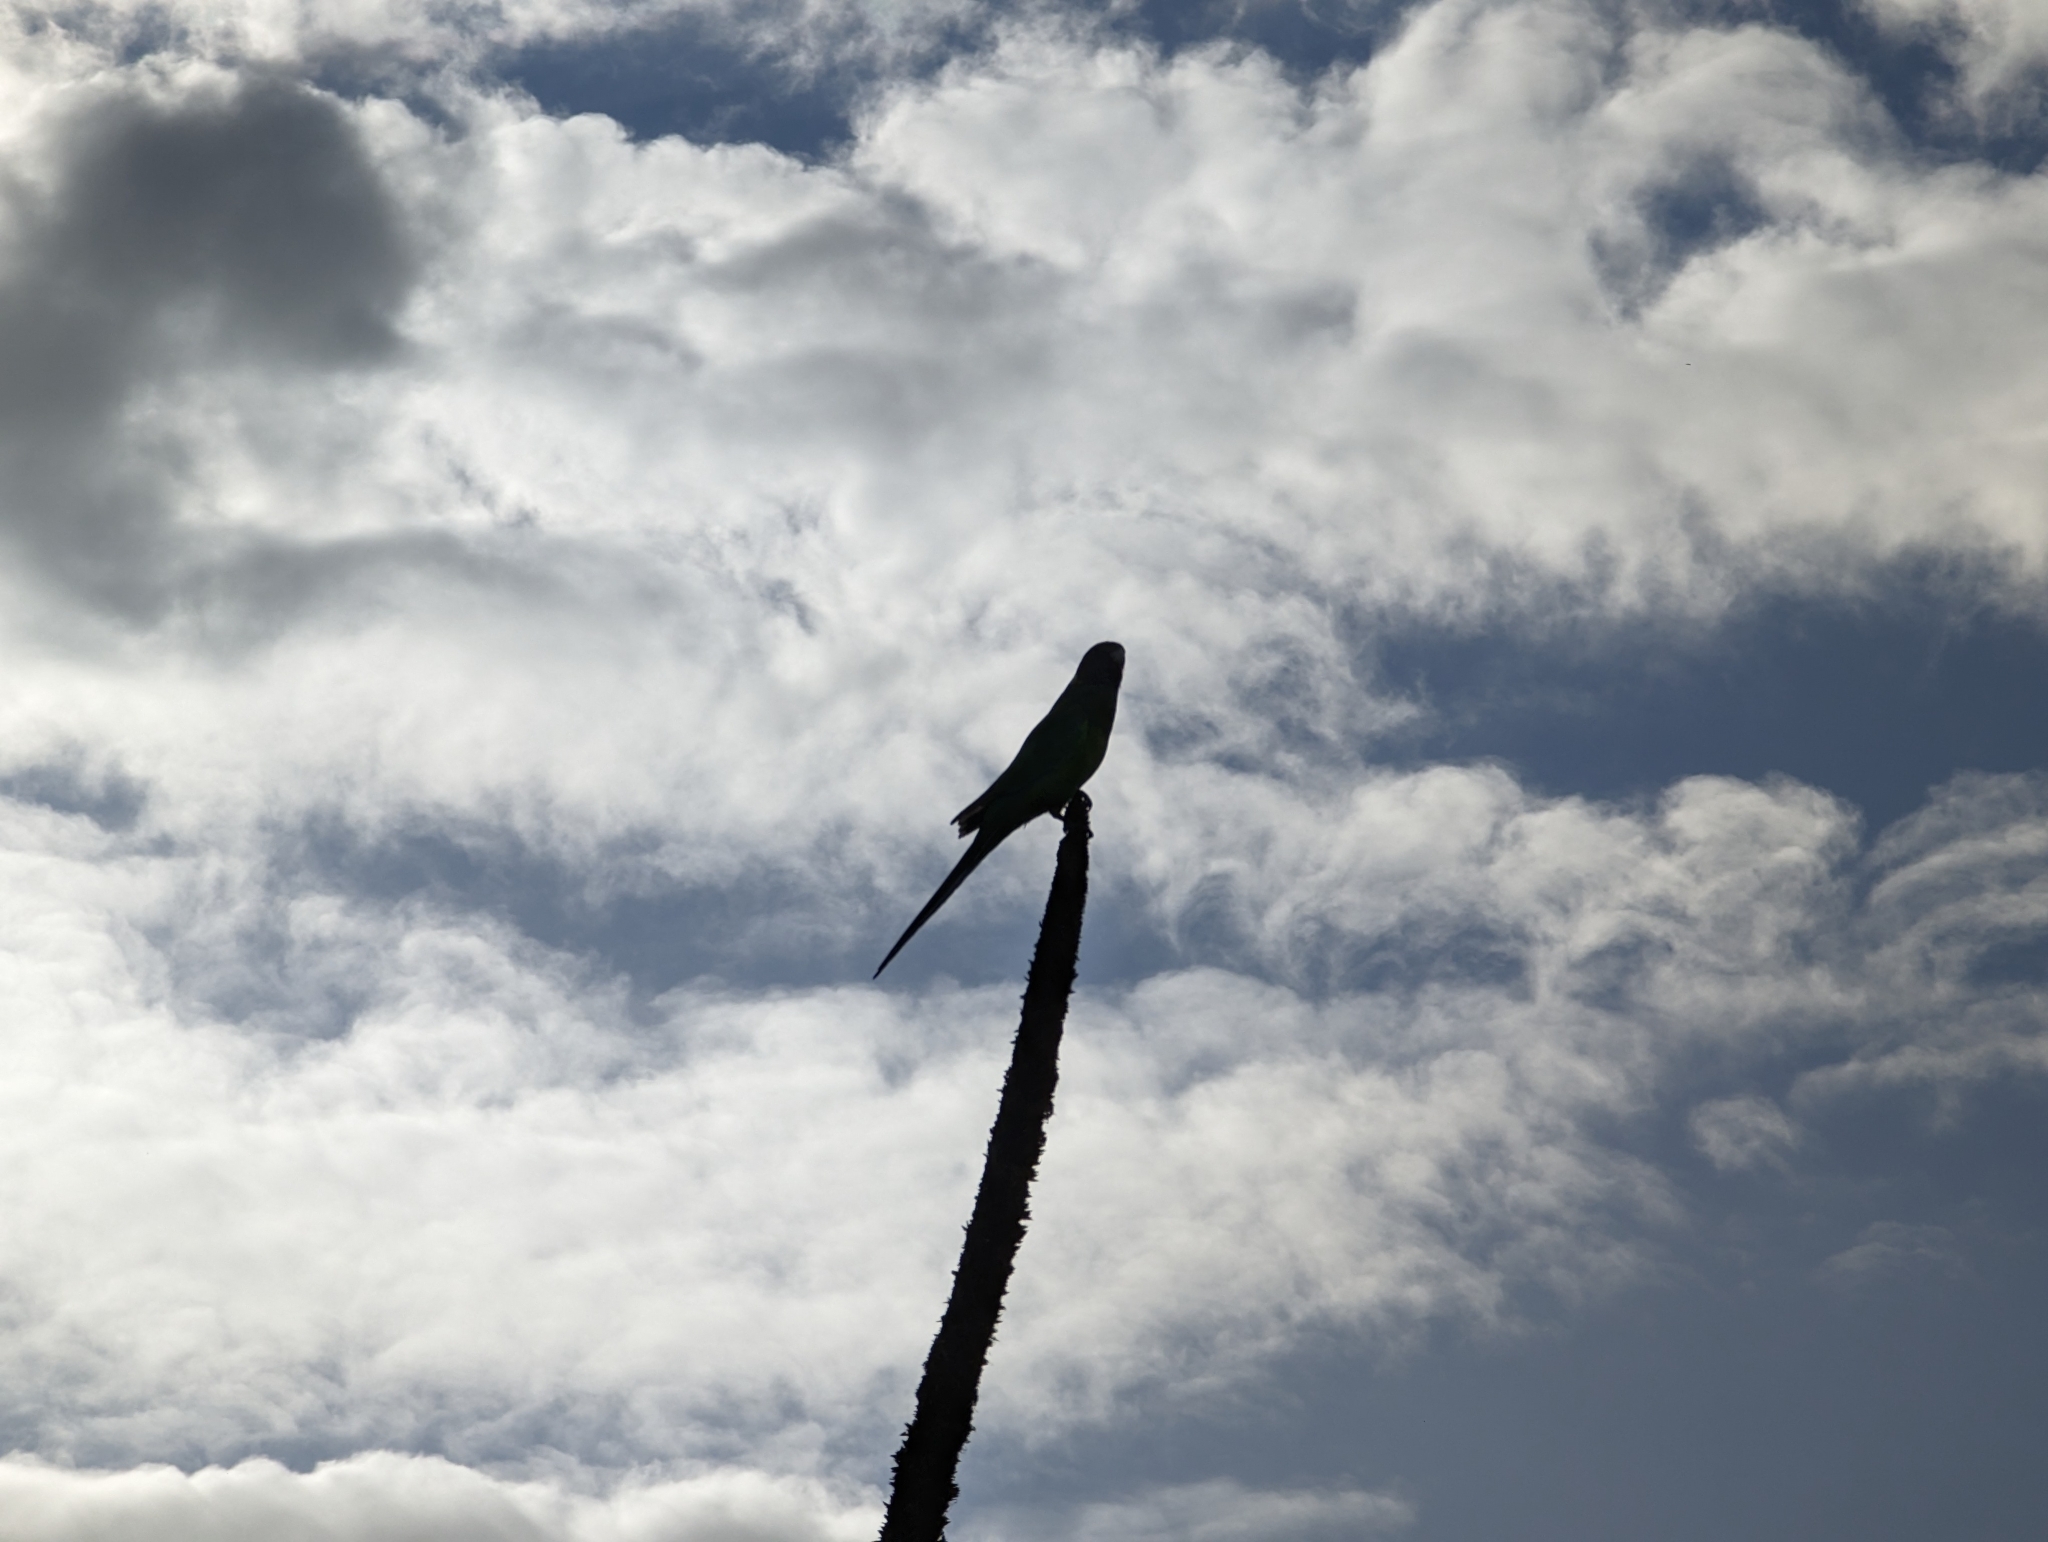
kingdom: Animalia
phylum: Chordata
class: Aves
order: Psittaciformes
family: Psittacidae
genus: Barnardius
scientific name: Barnardius zonarius
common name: Australian ringneck
